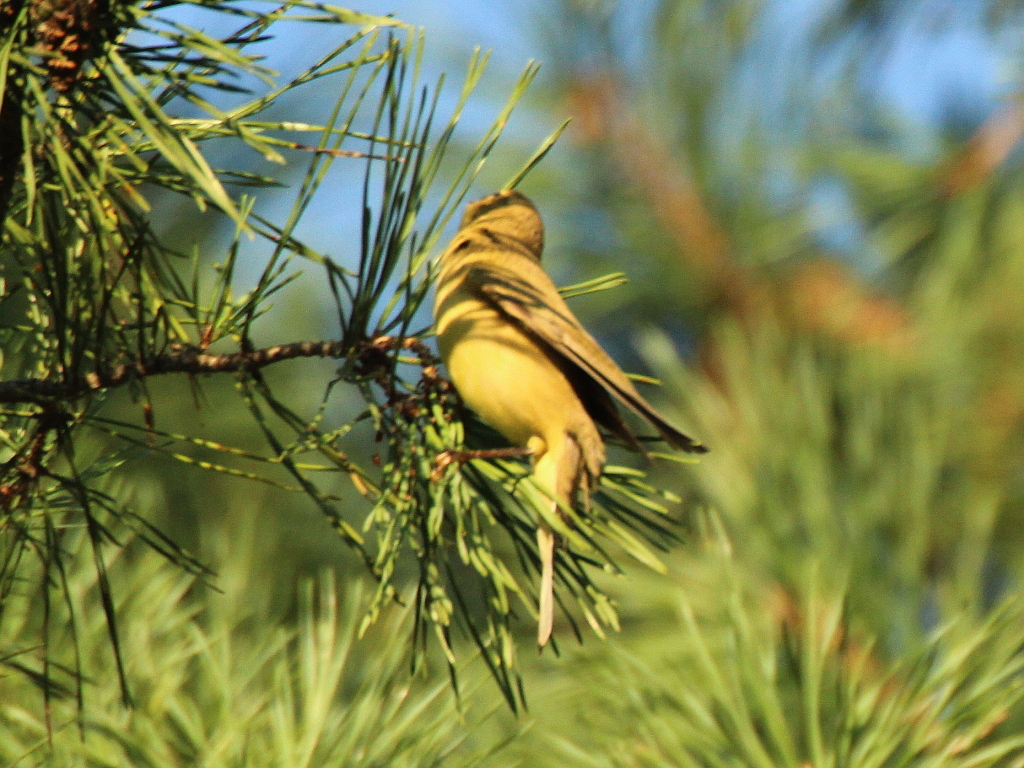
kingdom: Animalia
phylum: Chordata
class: Aves
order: Passeriformes
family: Phylloscopidae
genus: Phylloscopus
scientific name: Phylloscopus trochilus
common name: Willow warbler
